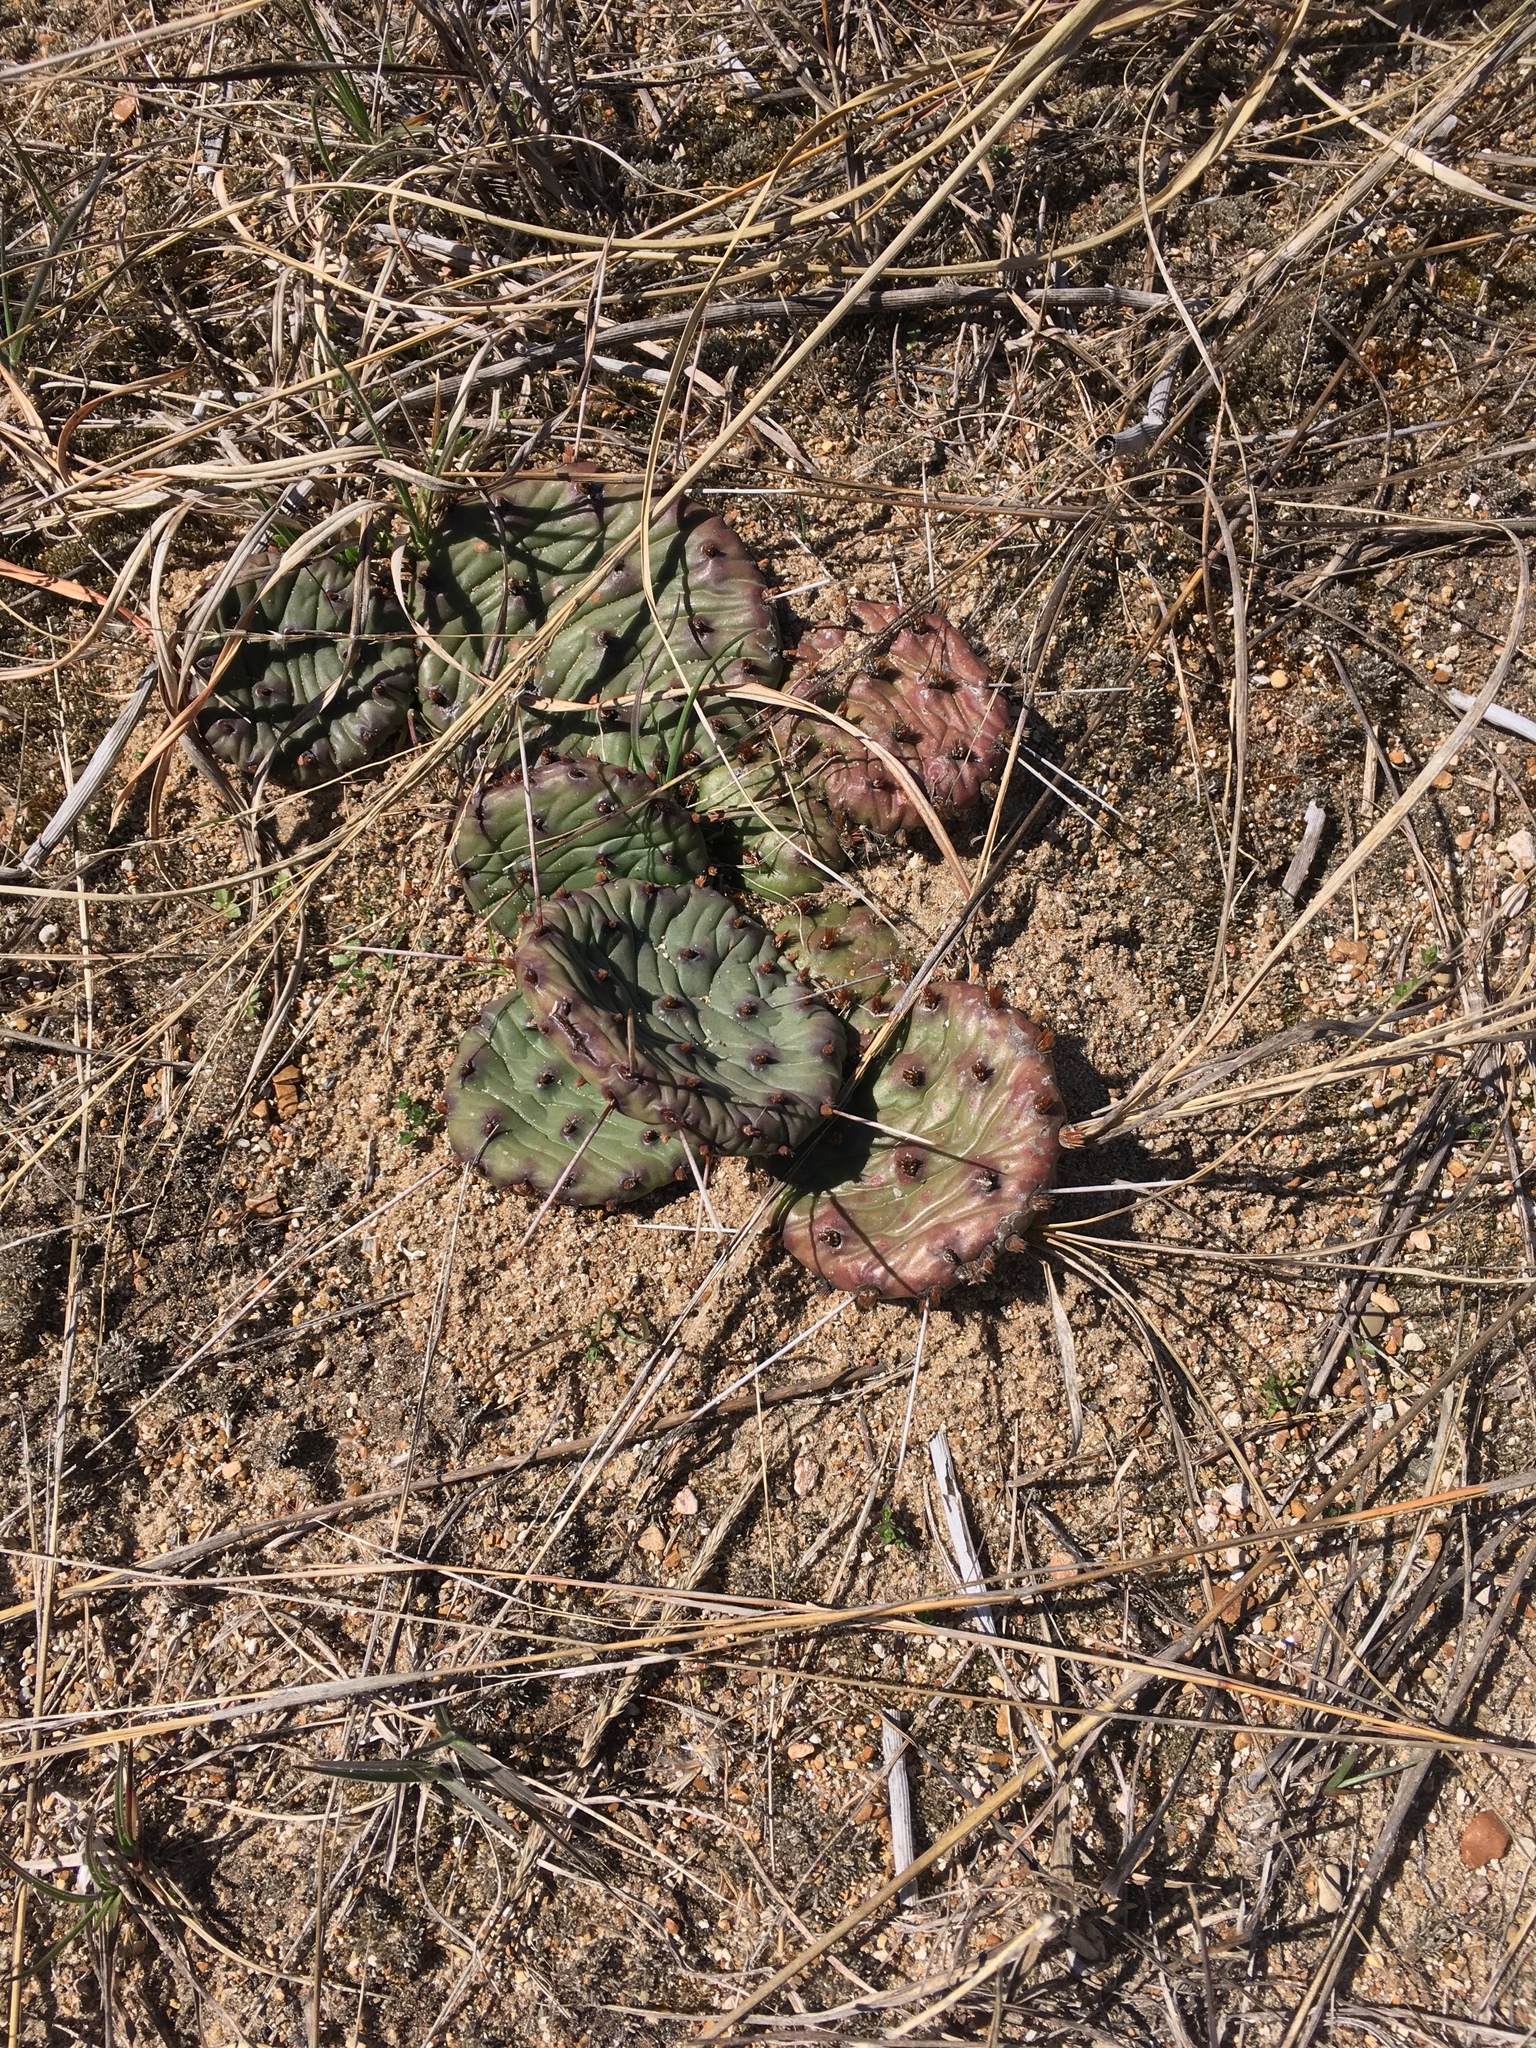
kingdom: Plantae
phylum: Tracheophyta
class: Magnoliopsida
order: Caryophyllales
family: Cactaceae
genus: Opuntia
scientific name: Opuntia humifusa
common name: Eastern prickly-pear
